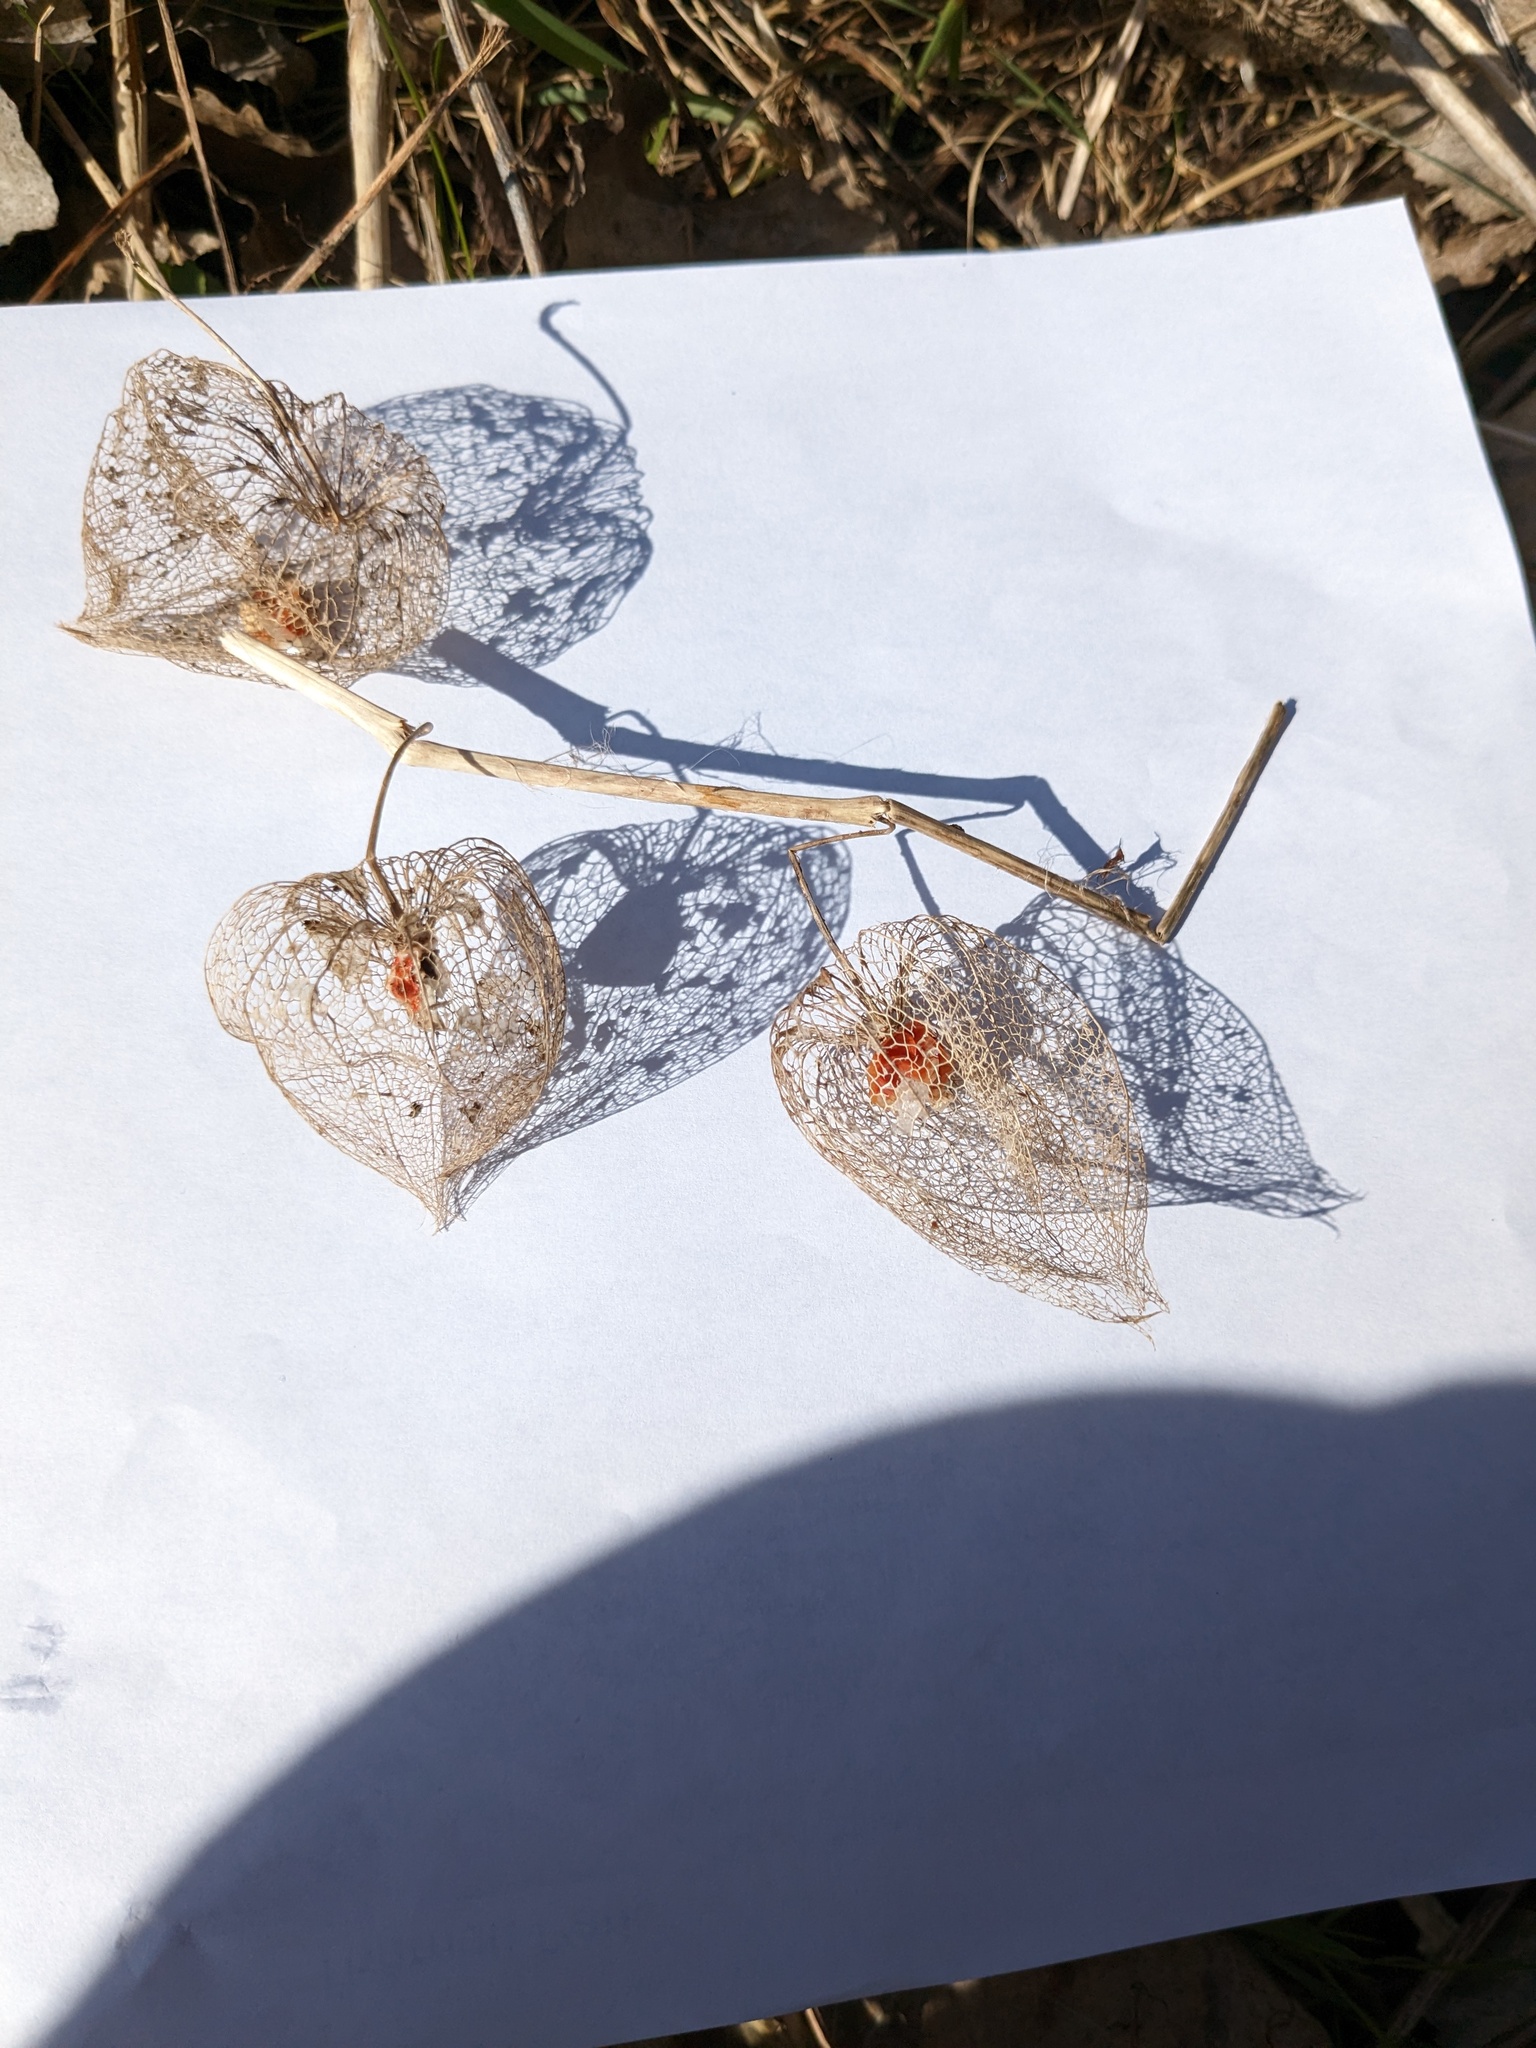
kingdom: Plantae
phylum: Tracheophyta
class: Magnoliopsida
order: Solanales
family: Solanaceae
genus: Alkekengi
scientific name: Alkekengi officinarum
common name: Japanese-lantern
